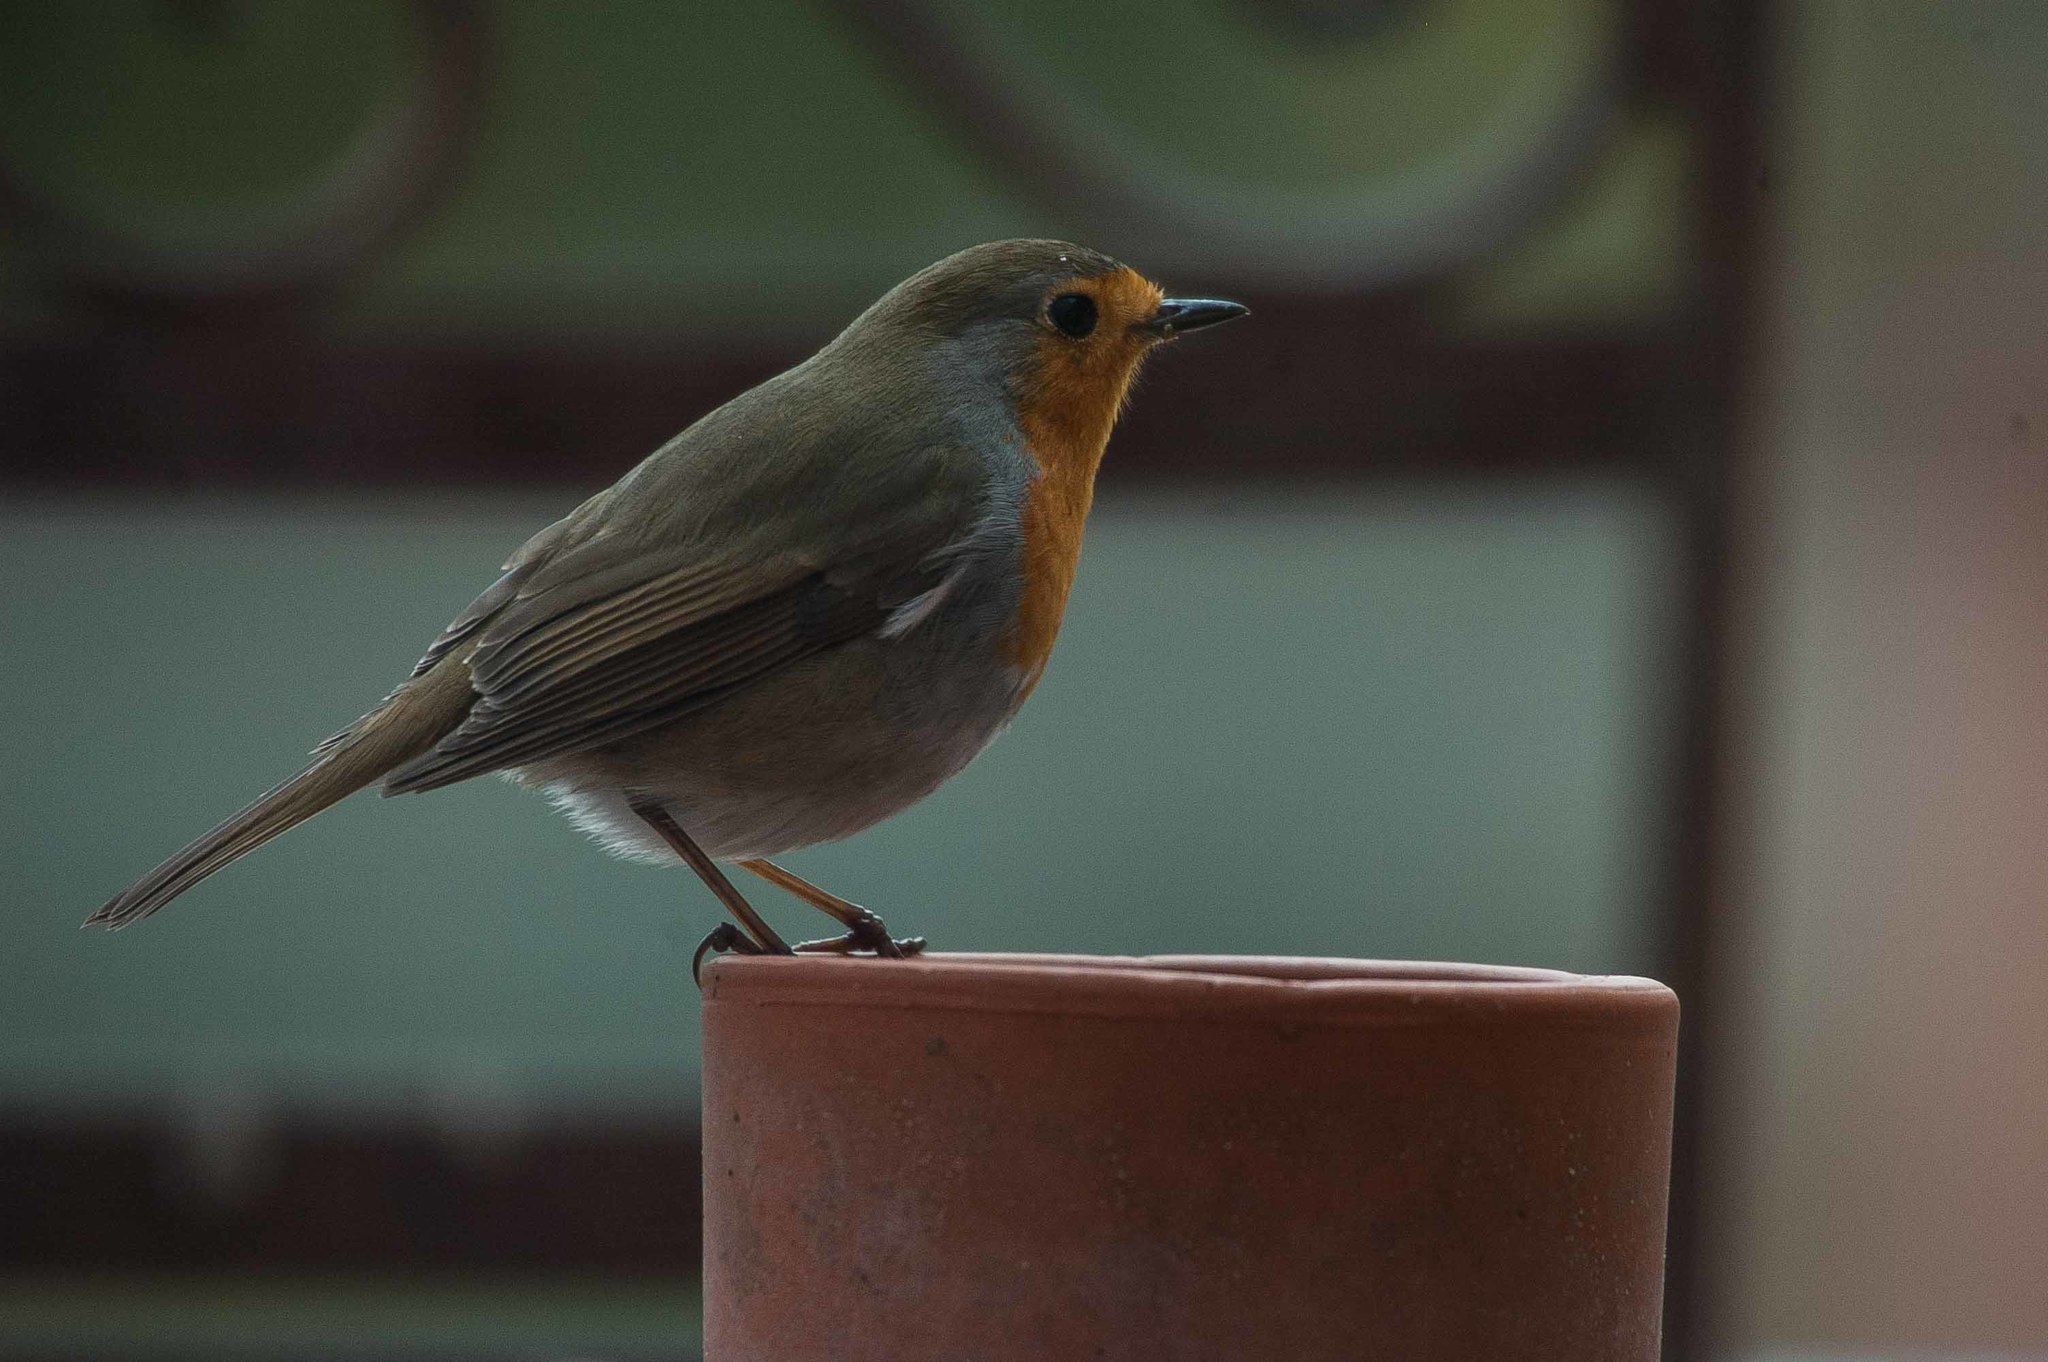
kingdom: Animalia
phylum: Chordata
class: Aves
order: Passeriformes
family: Muscicapidae
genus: Erithacus
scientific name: Erithacus rubecula
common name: European robin
